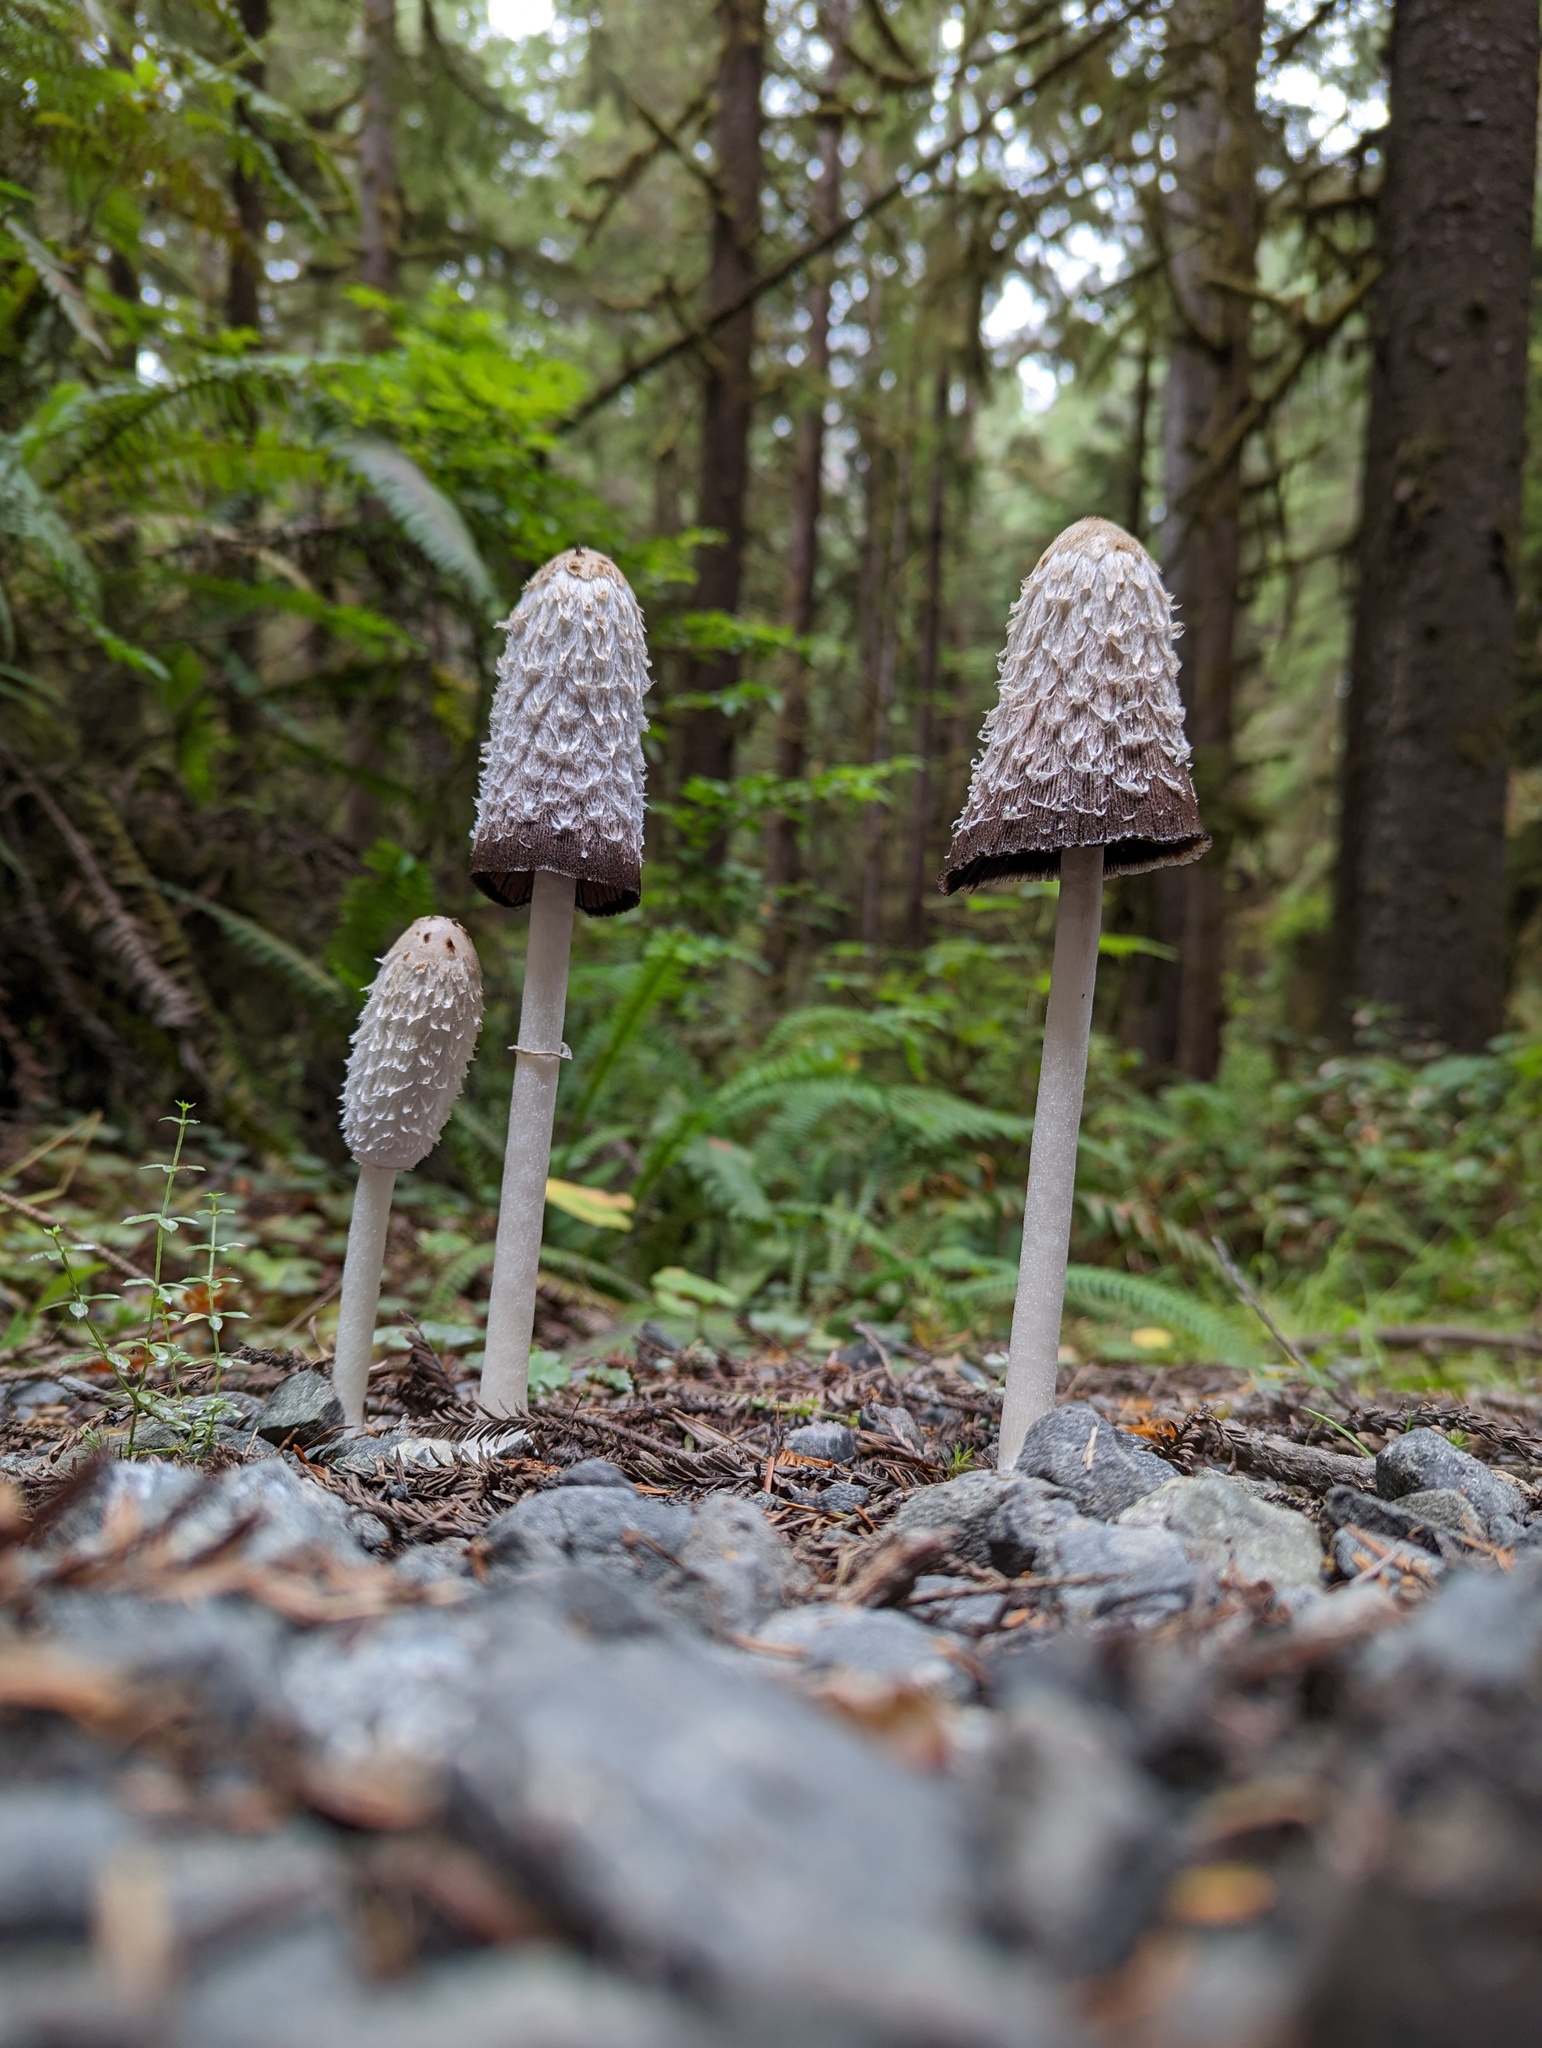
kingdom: Fungi
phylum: Basidiomycota
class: Agaricomycetes
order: Agaricales
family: Agaricaceae
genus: Coprinus
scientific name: Coprinus comatus
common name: Lawyer's wig
